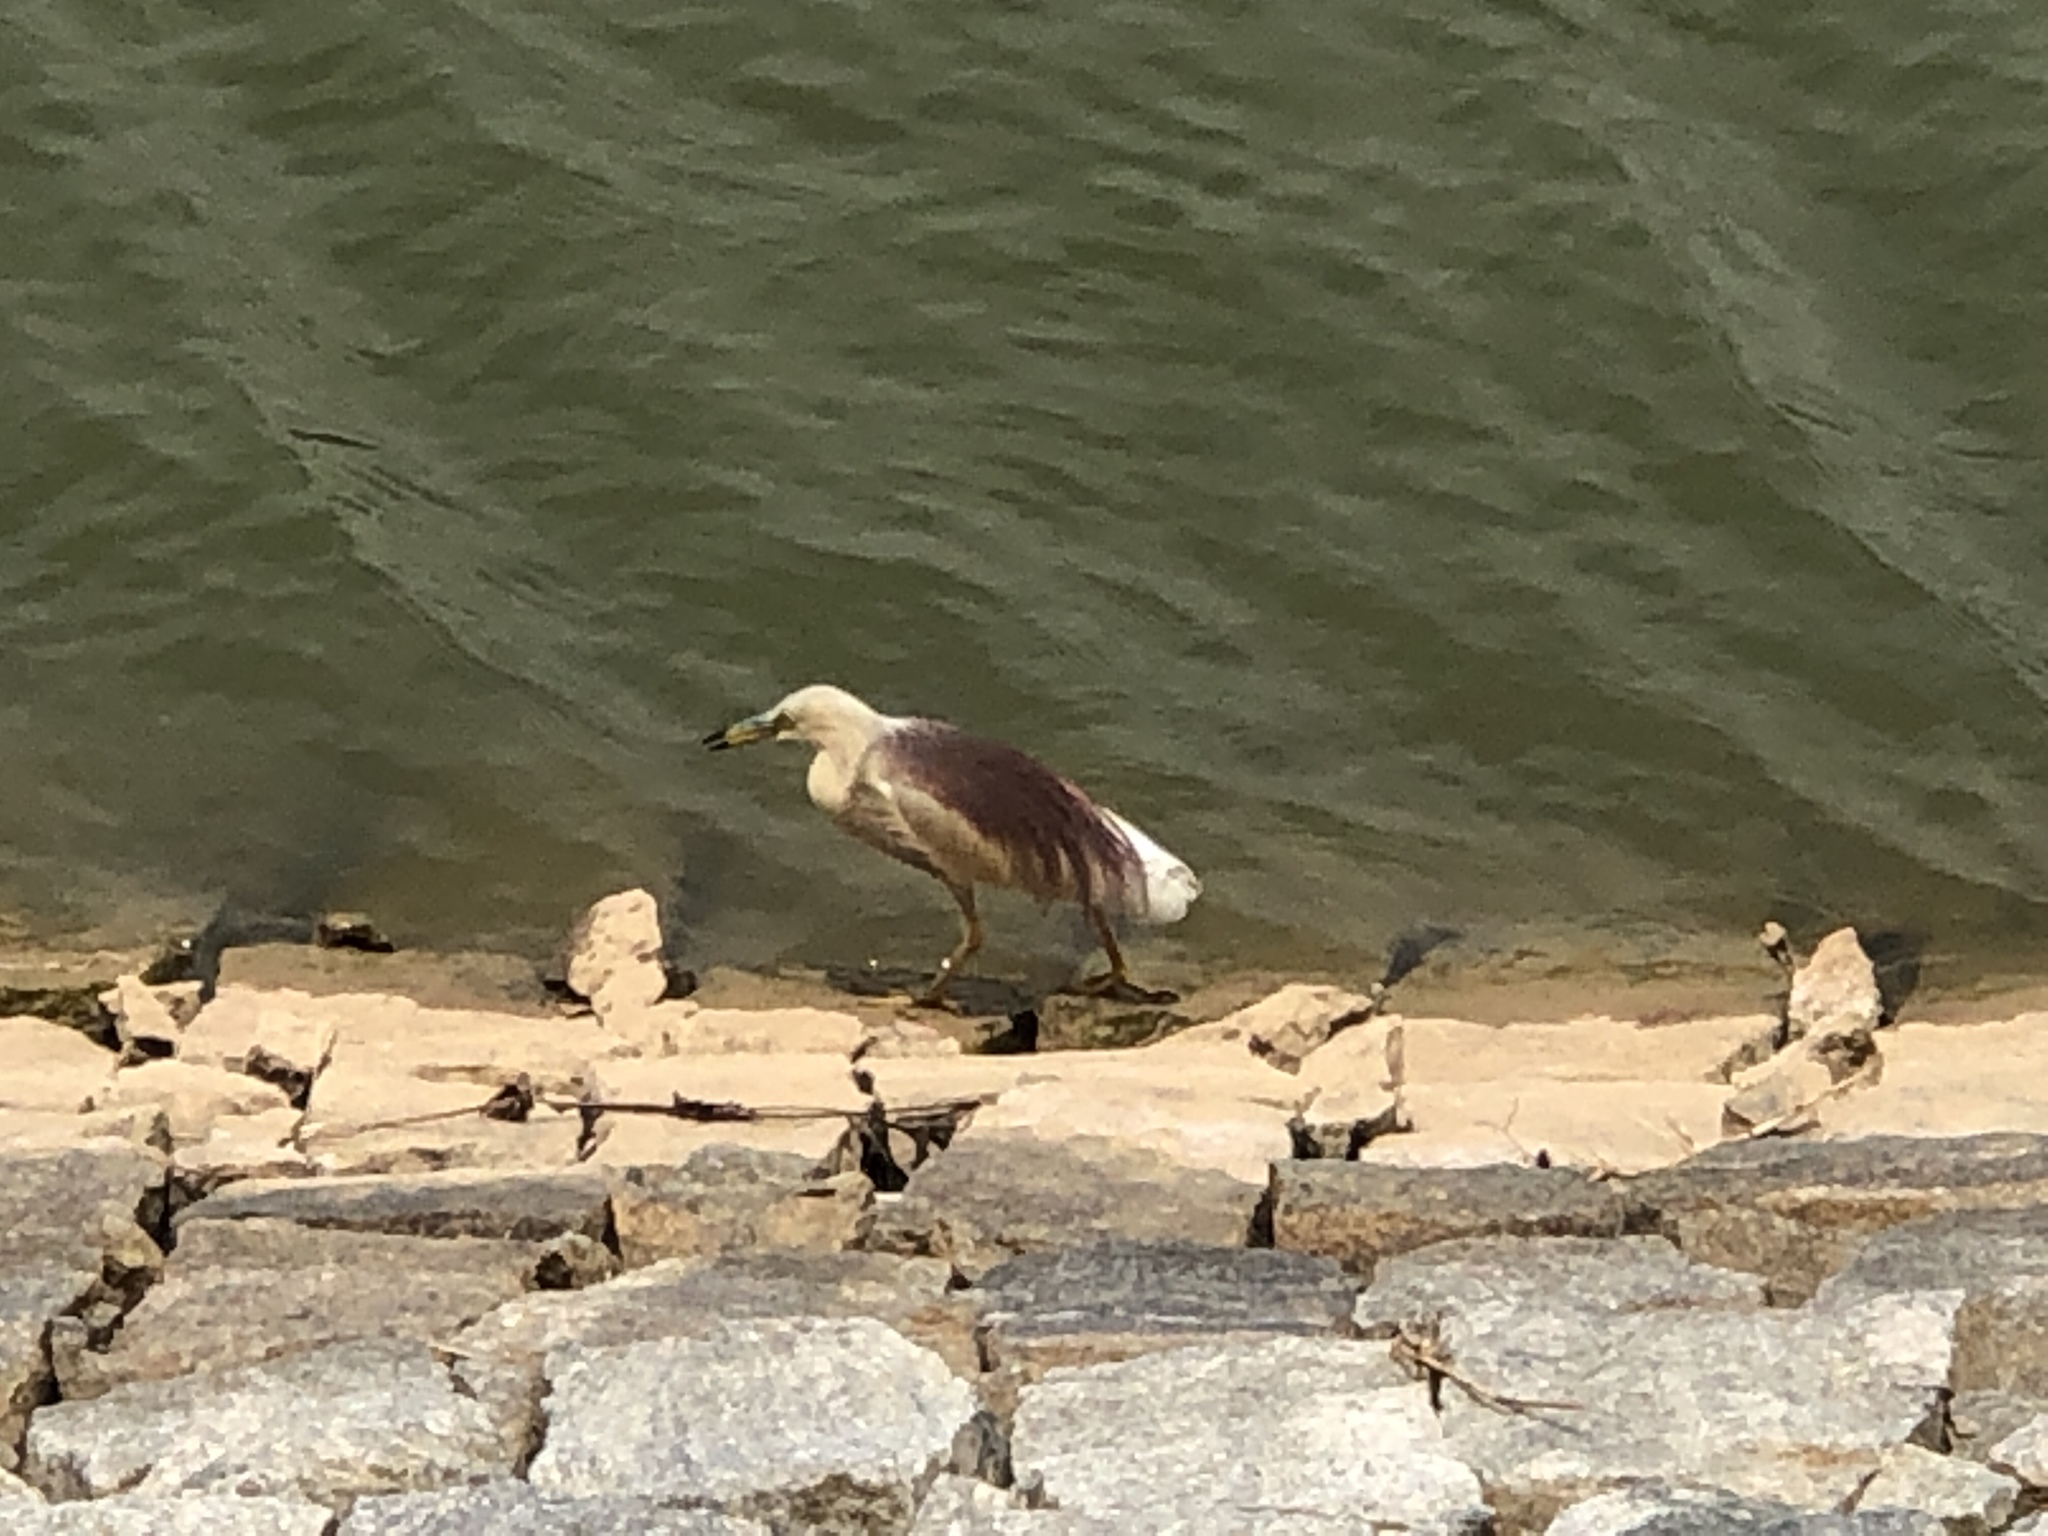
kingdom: Animalia
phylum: Chordata
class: Aves
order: Pelecaniformes
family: Ardeidae
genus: Ardeola
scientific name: Ardeola grayii
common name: Indian pond heron
